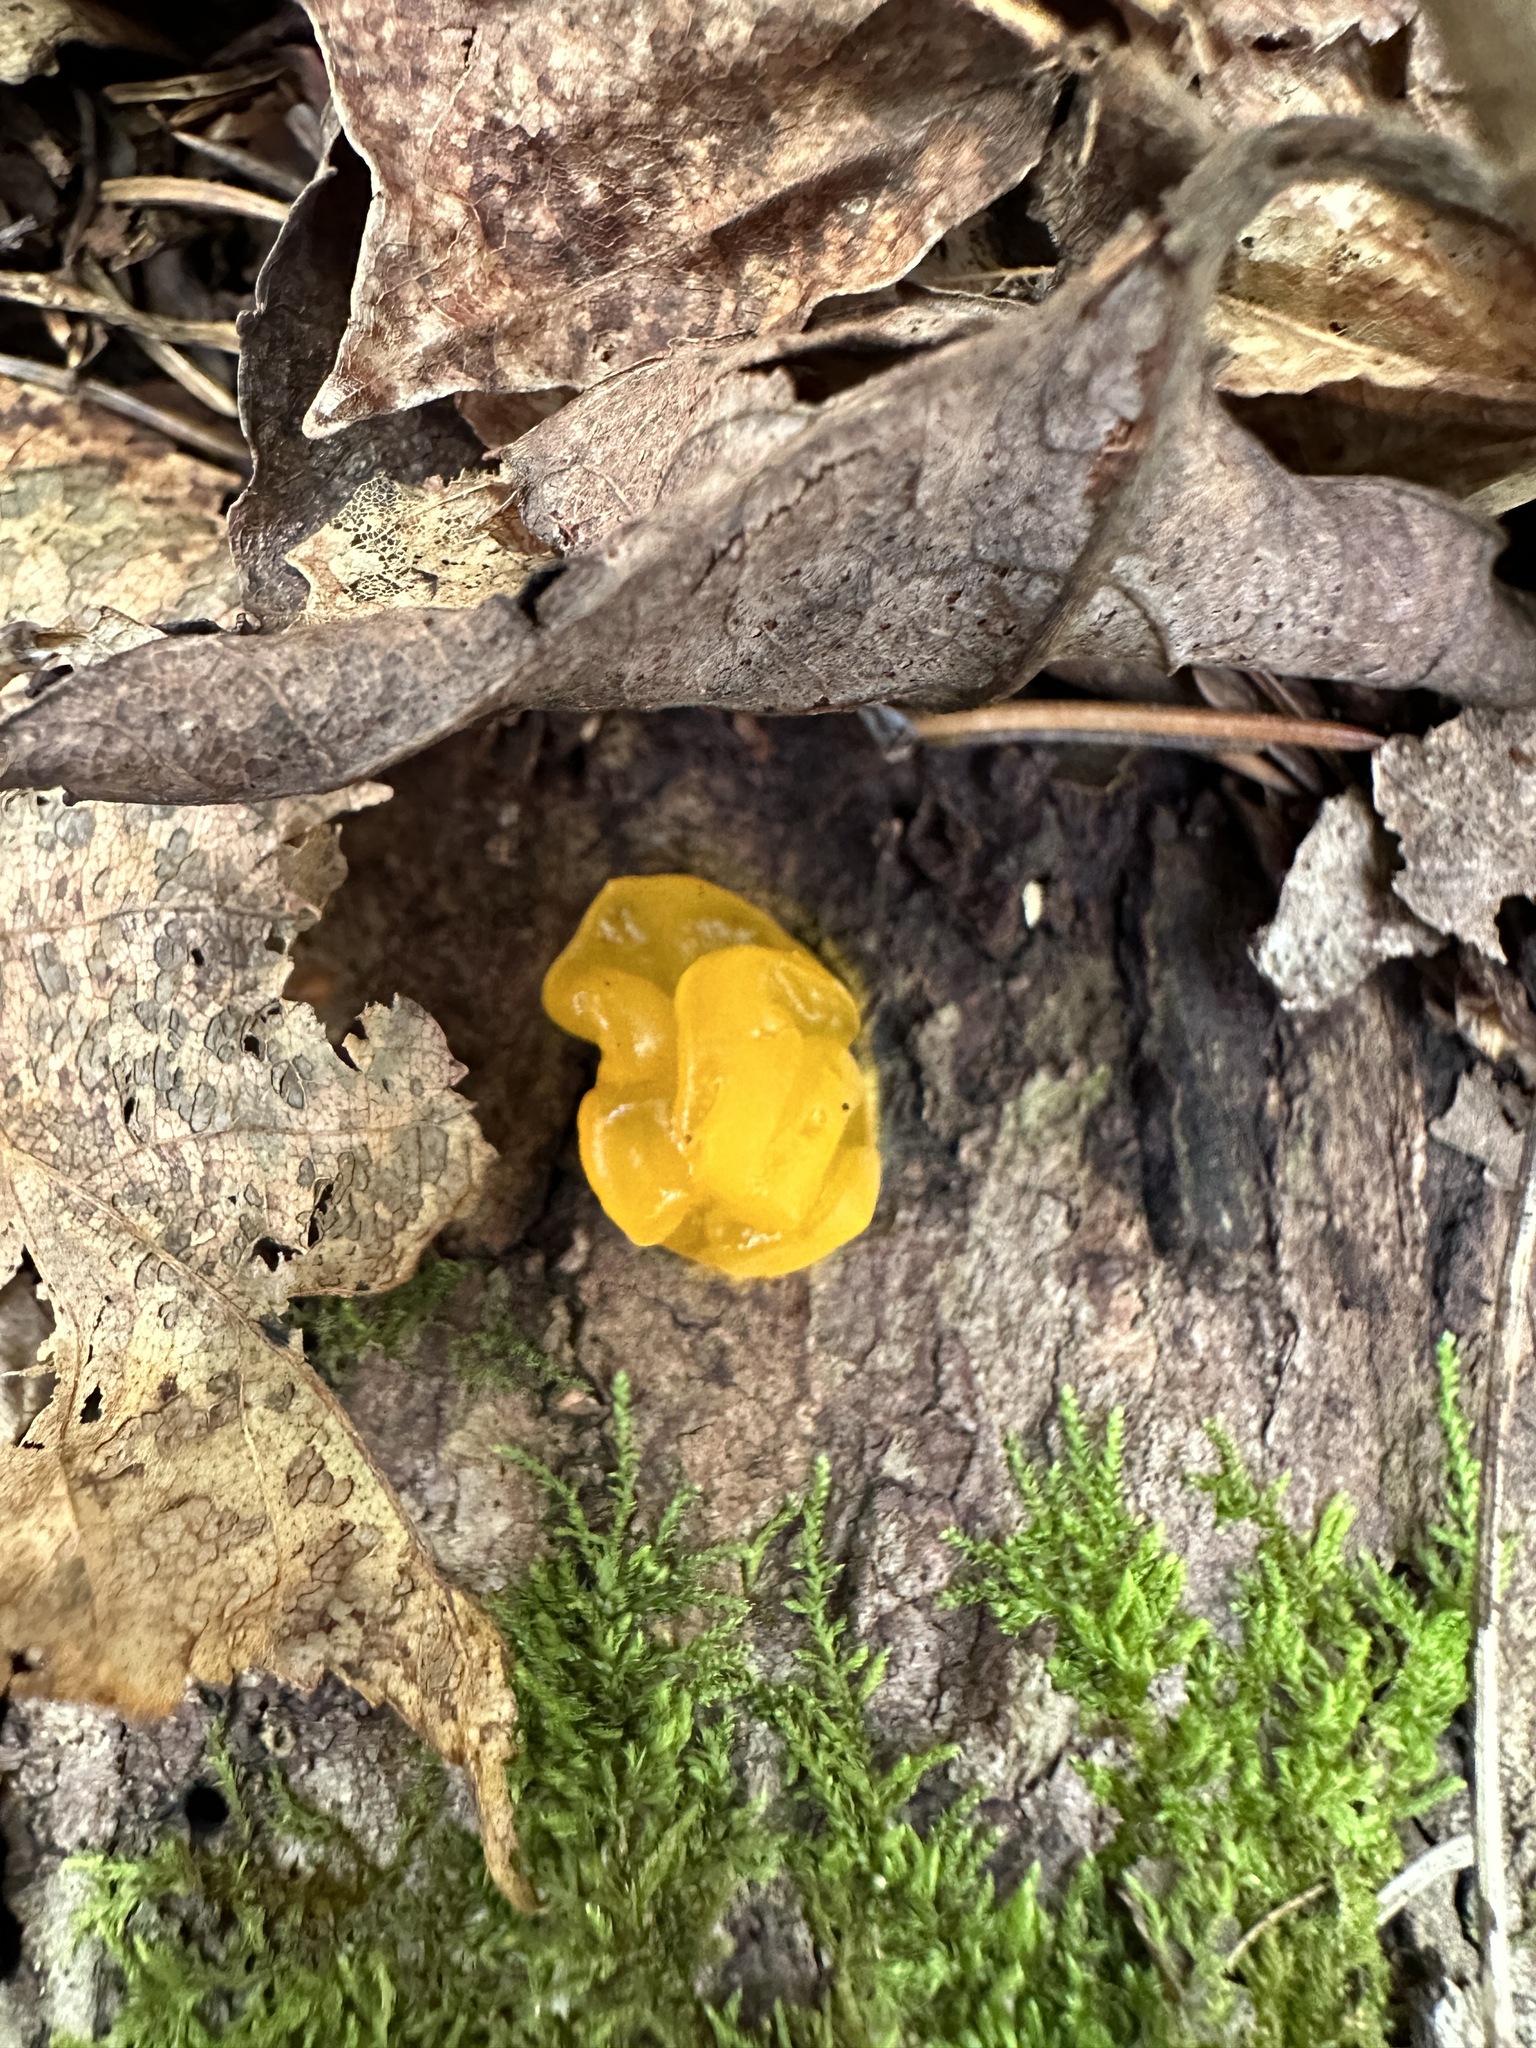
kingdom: Fungi
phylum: Basidiomycota
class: Dacrymycetes
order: Dacrymycetales
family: Dacrymycetaceae
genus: Dacrymyces
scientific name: Dacrymyces chrysospermus
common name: Orange jelly spot
